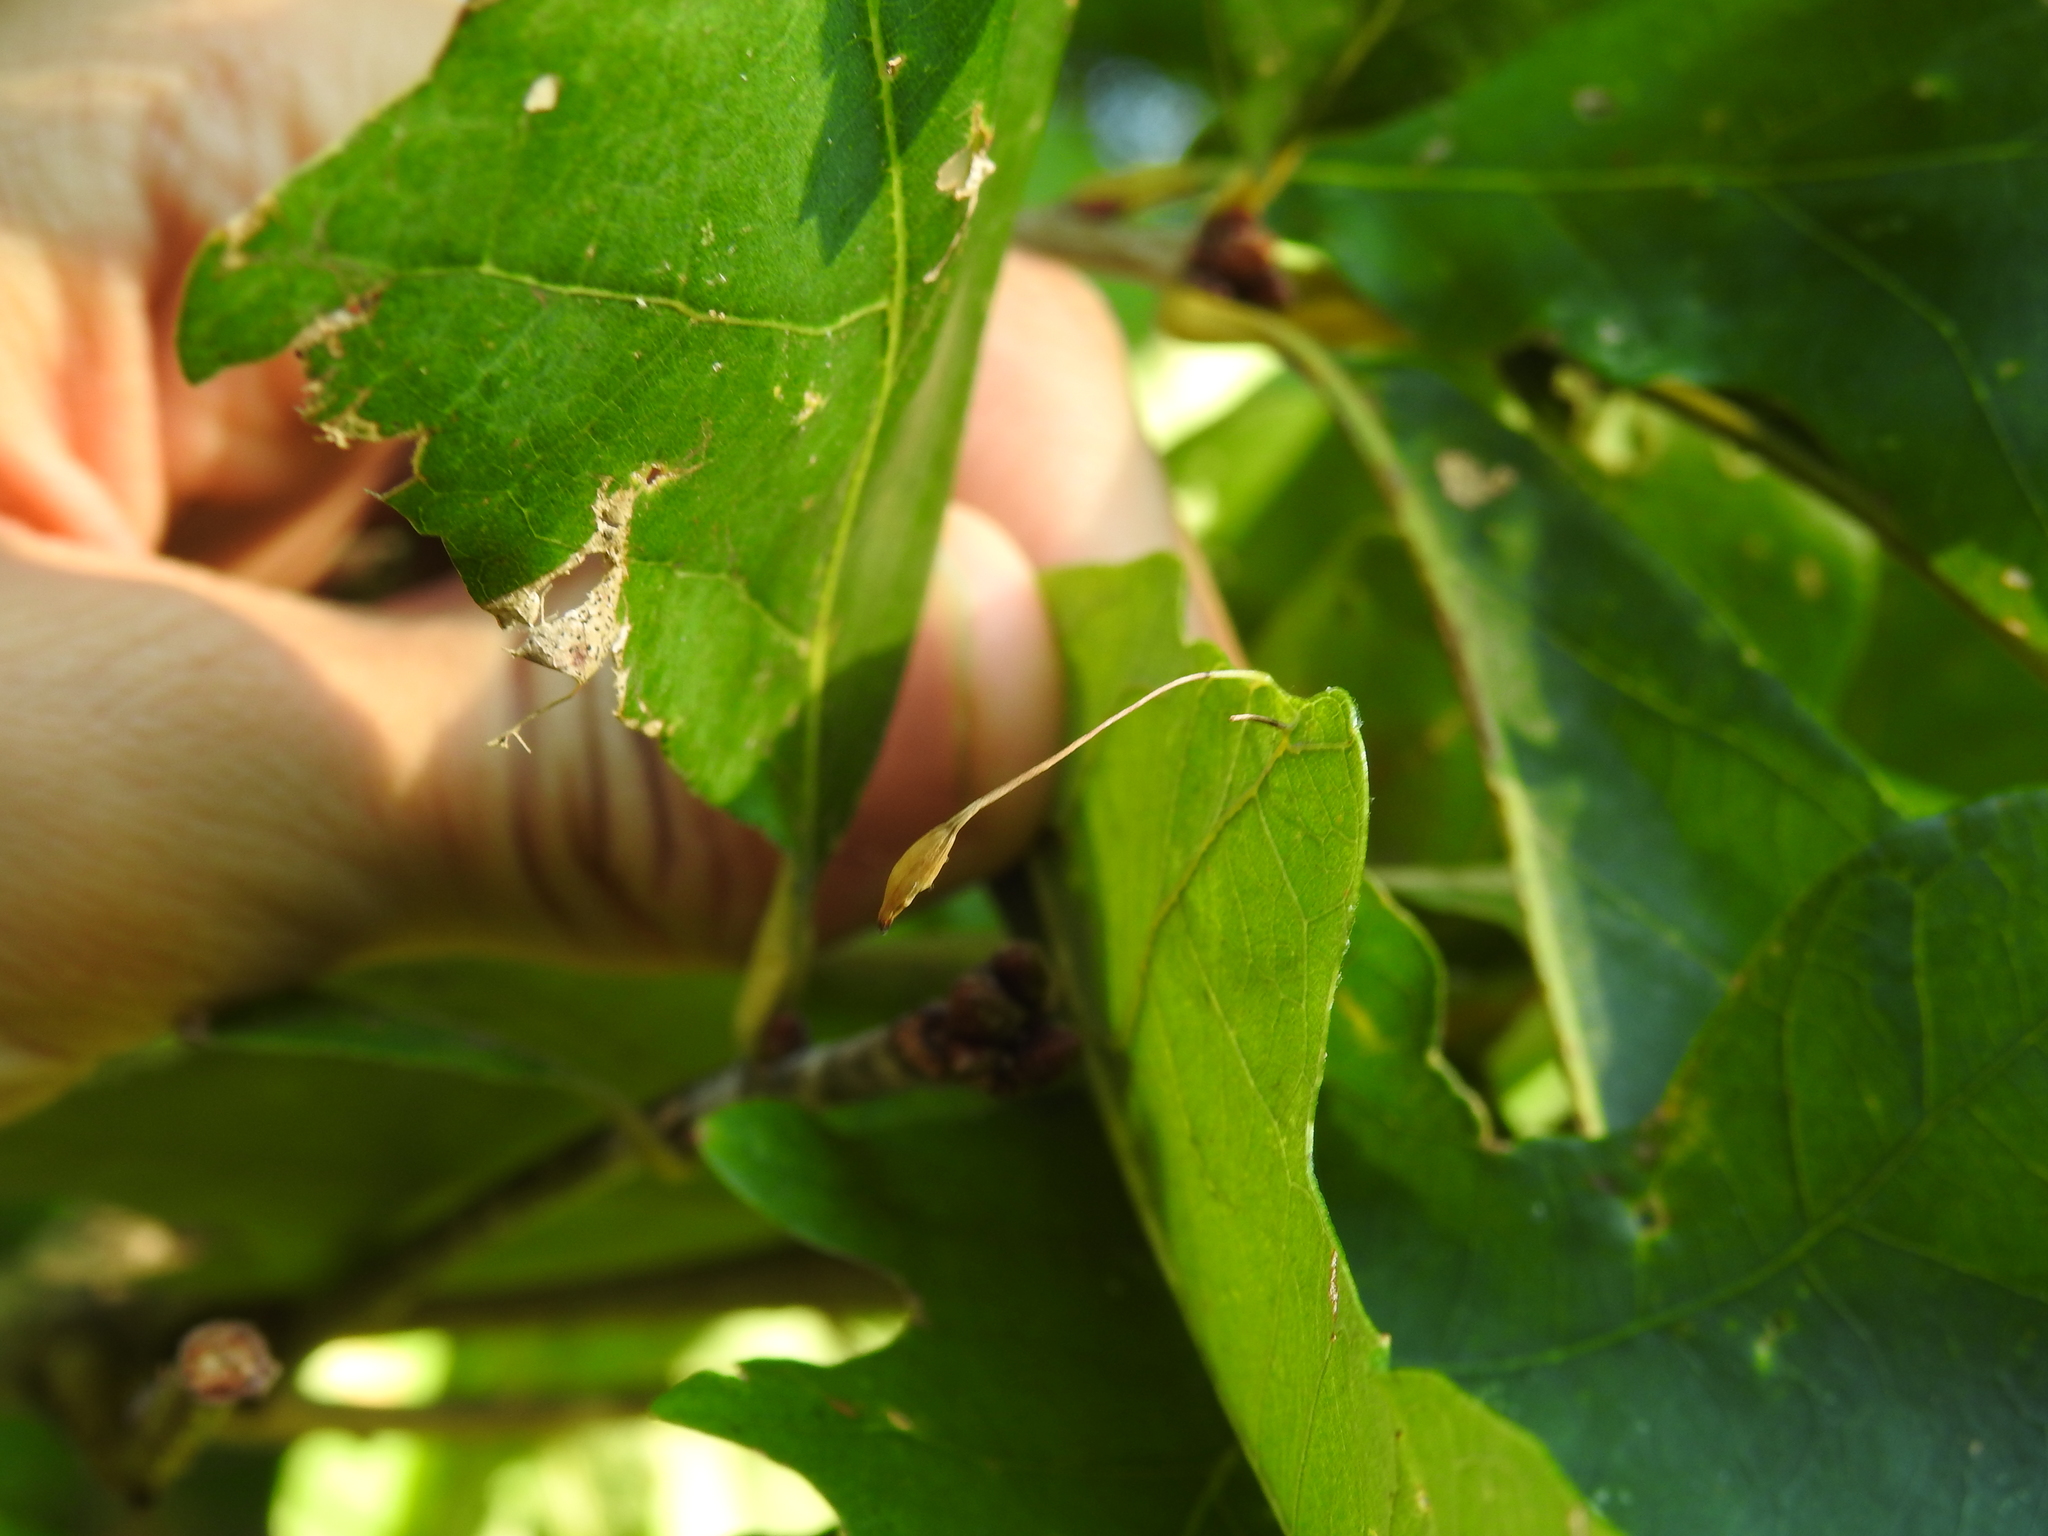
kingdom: Animalia
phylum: Arthropoda
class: Insecta
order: Hymenoptera
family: Cynipidae
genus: Andricus
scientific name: Andricus
